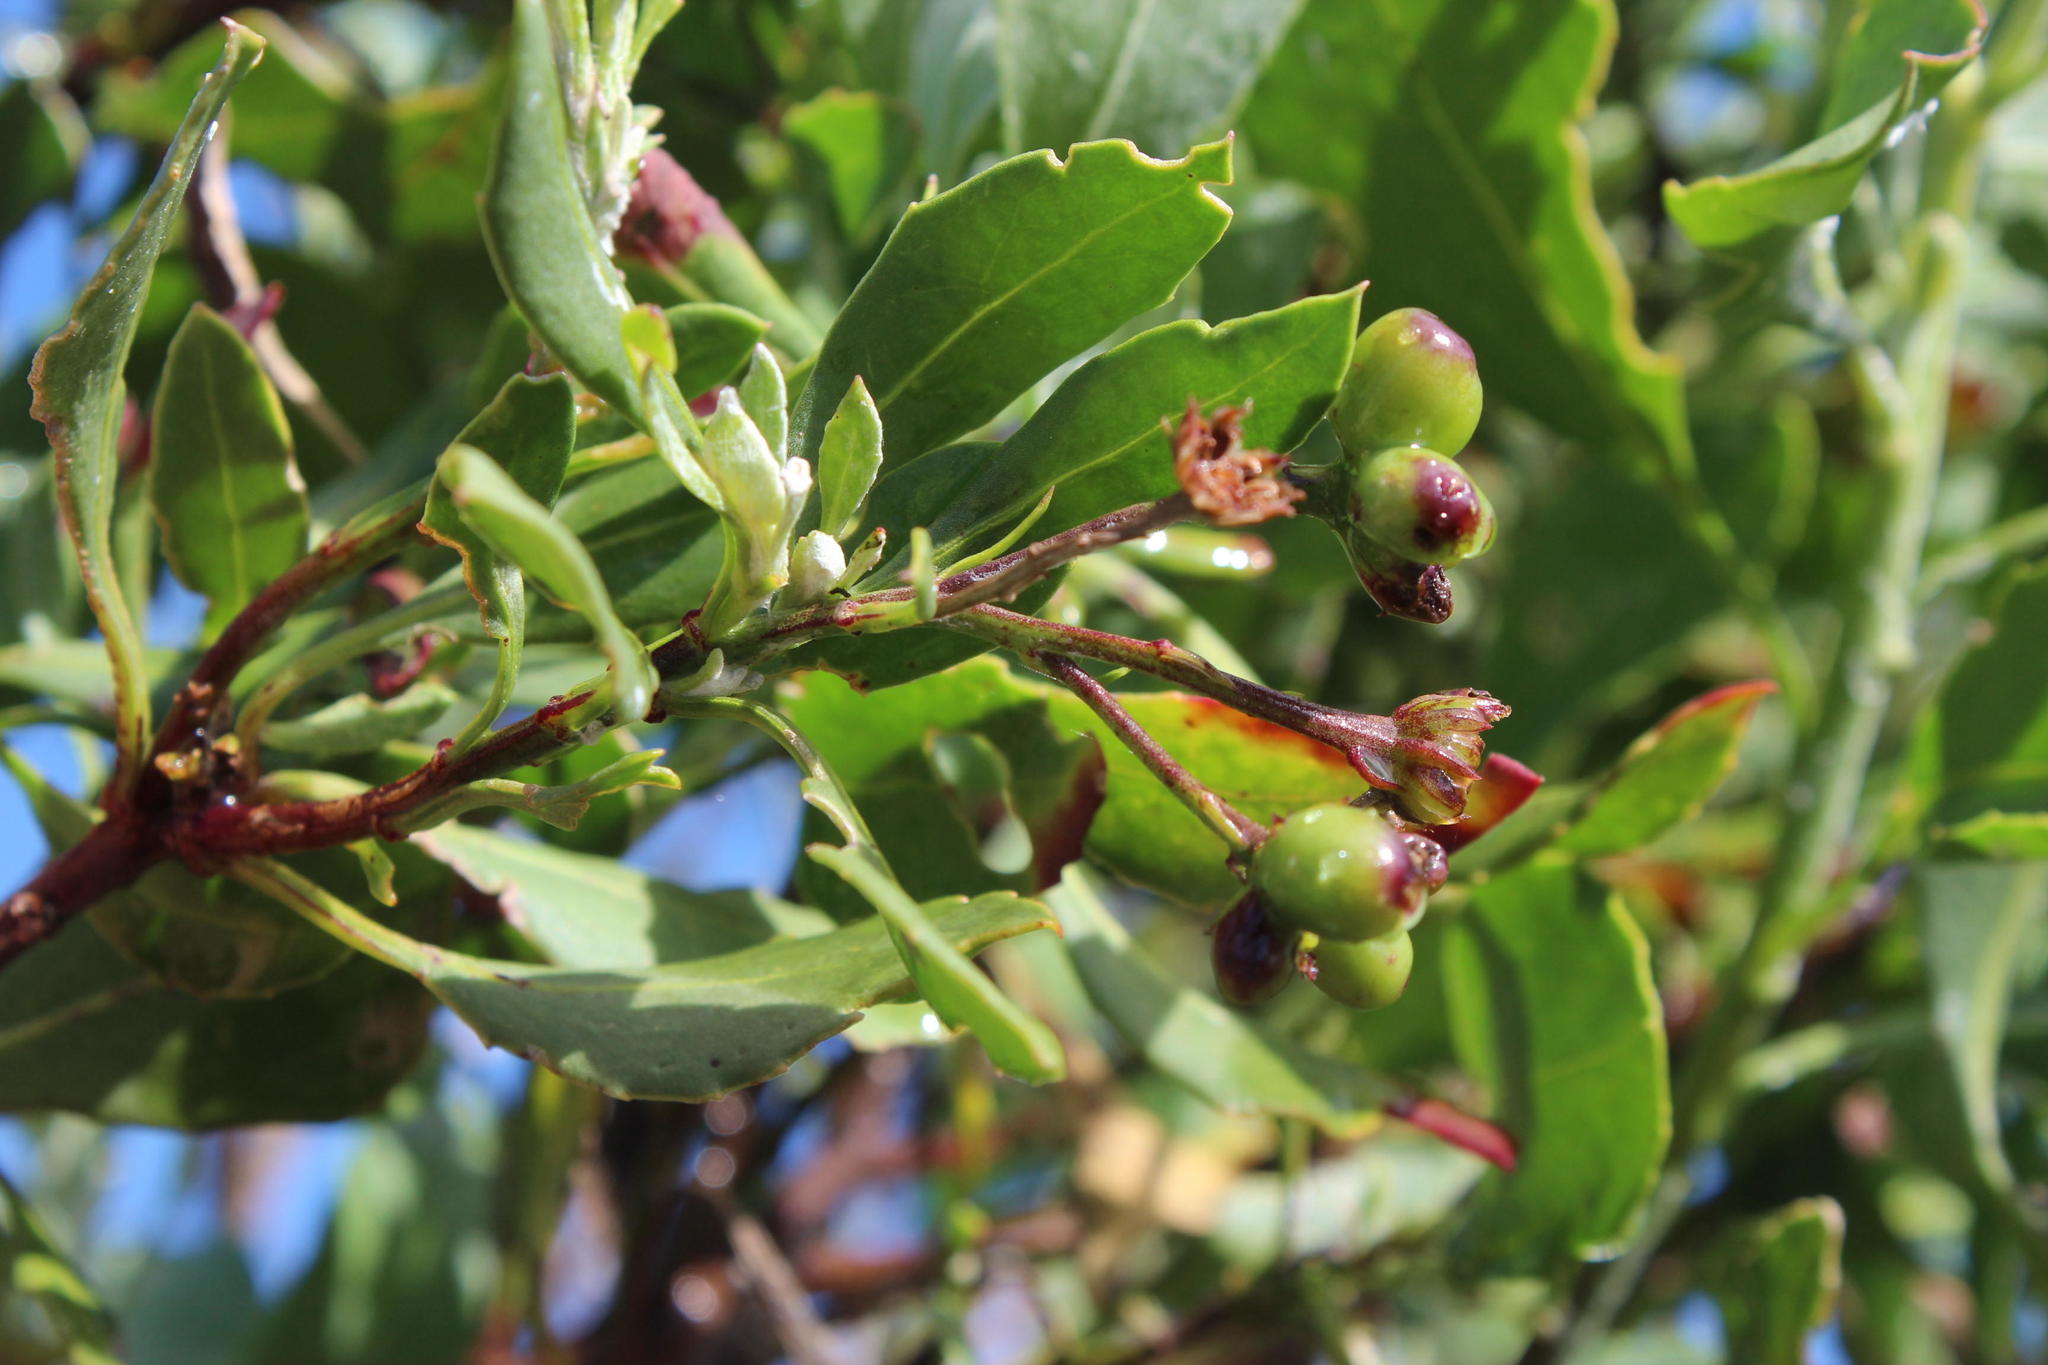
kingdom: Plantae
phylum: Tracheophyta
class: Magnoliopsida
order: Asterales
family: Asteraceae
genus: Osteospermum
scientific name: Osteospermum moniliferum
